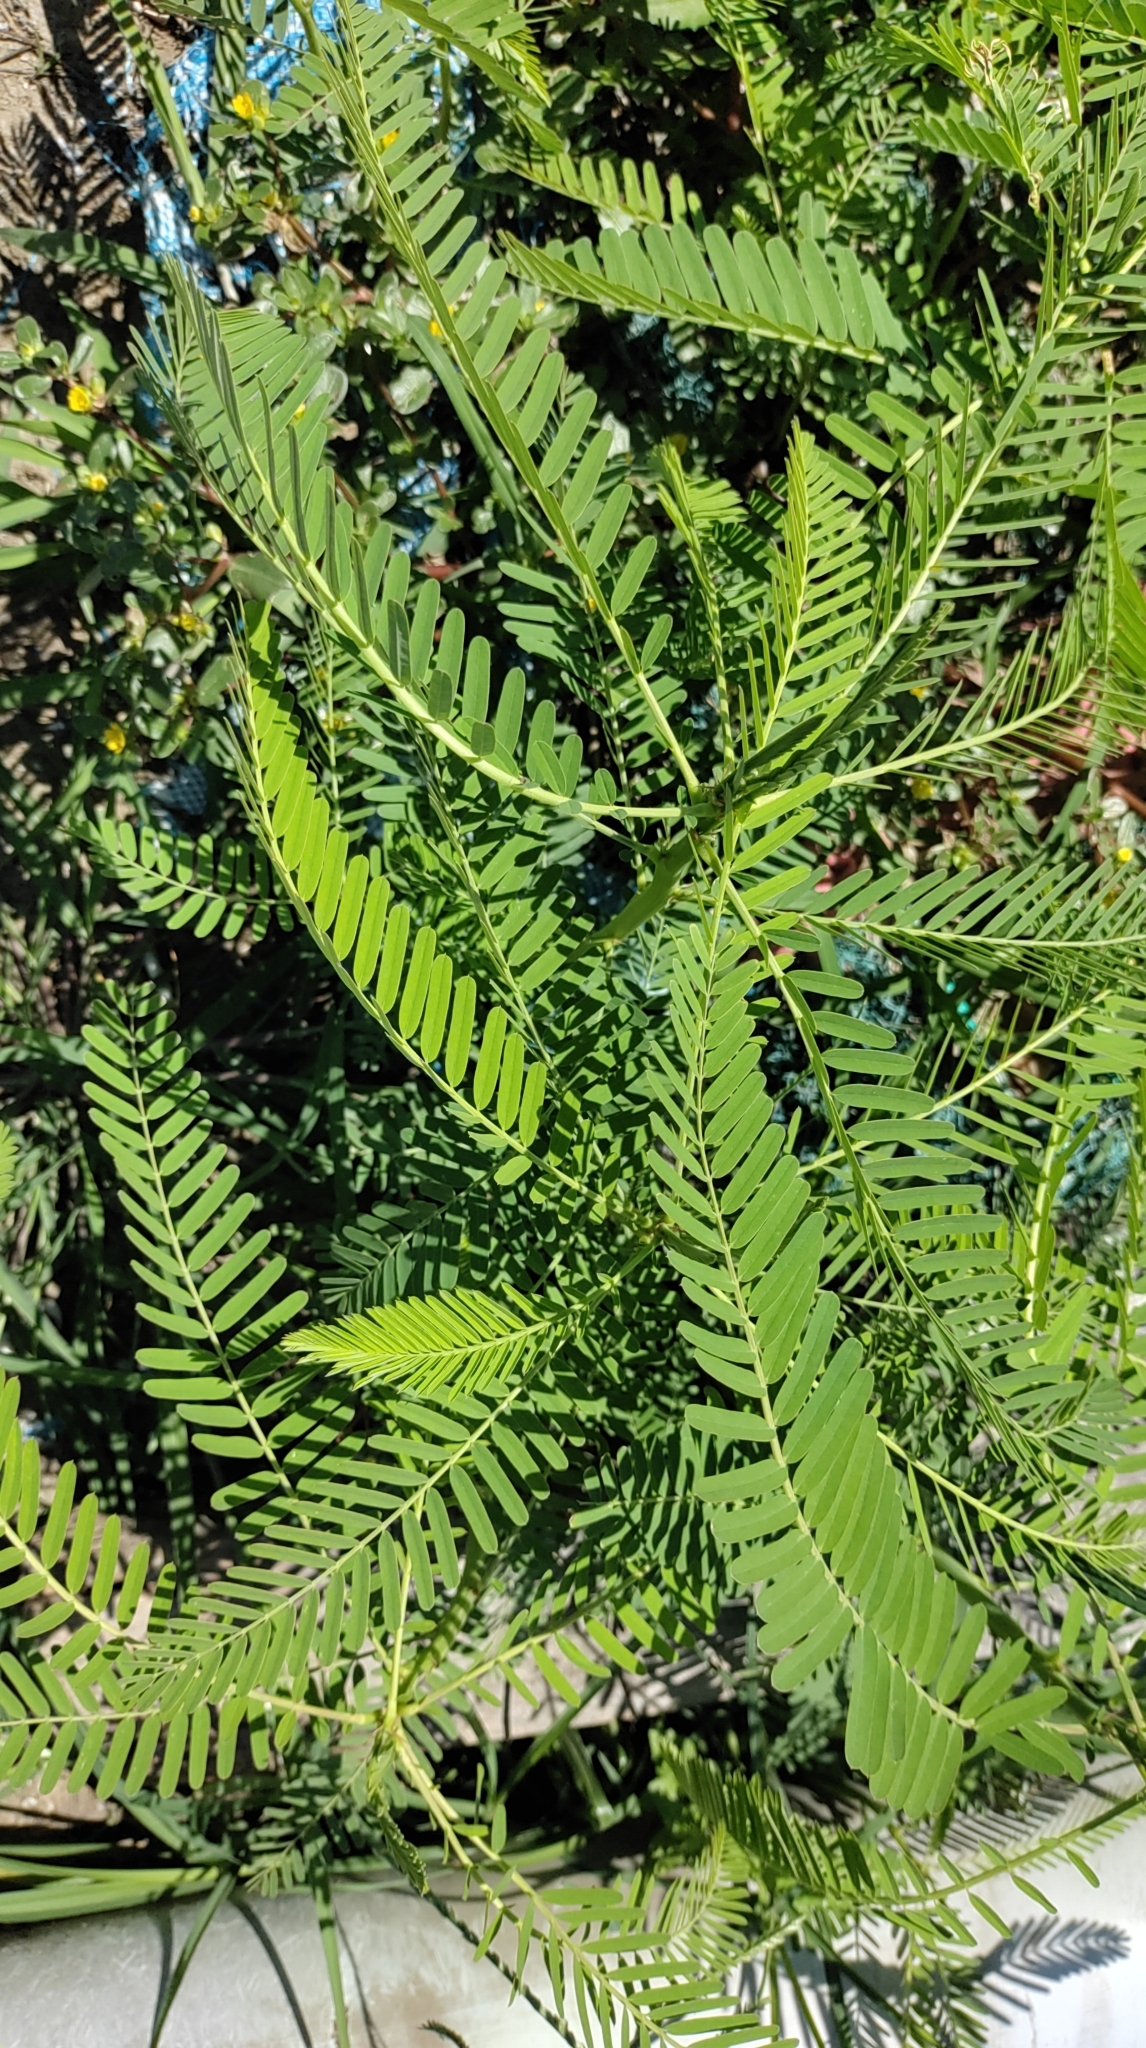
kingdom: Plantae
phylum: Tracheophyta
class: Magnoliopsida
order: Fabales
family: Fabaceae
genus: Sesbania
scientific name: Sesbania cannabina
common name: Canicha
